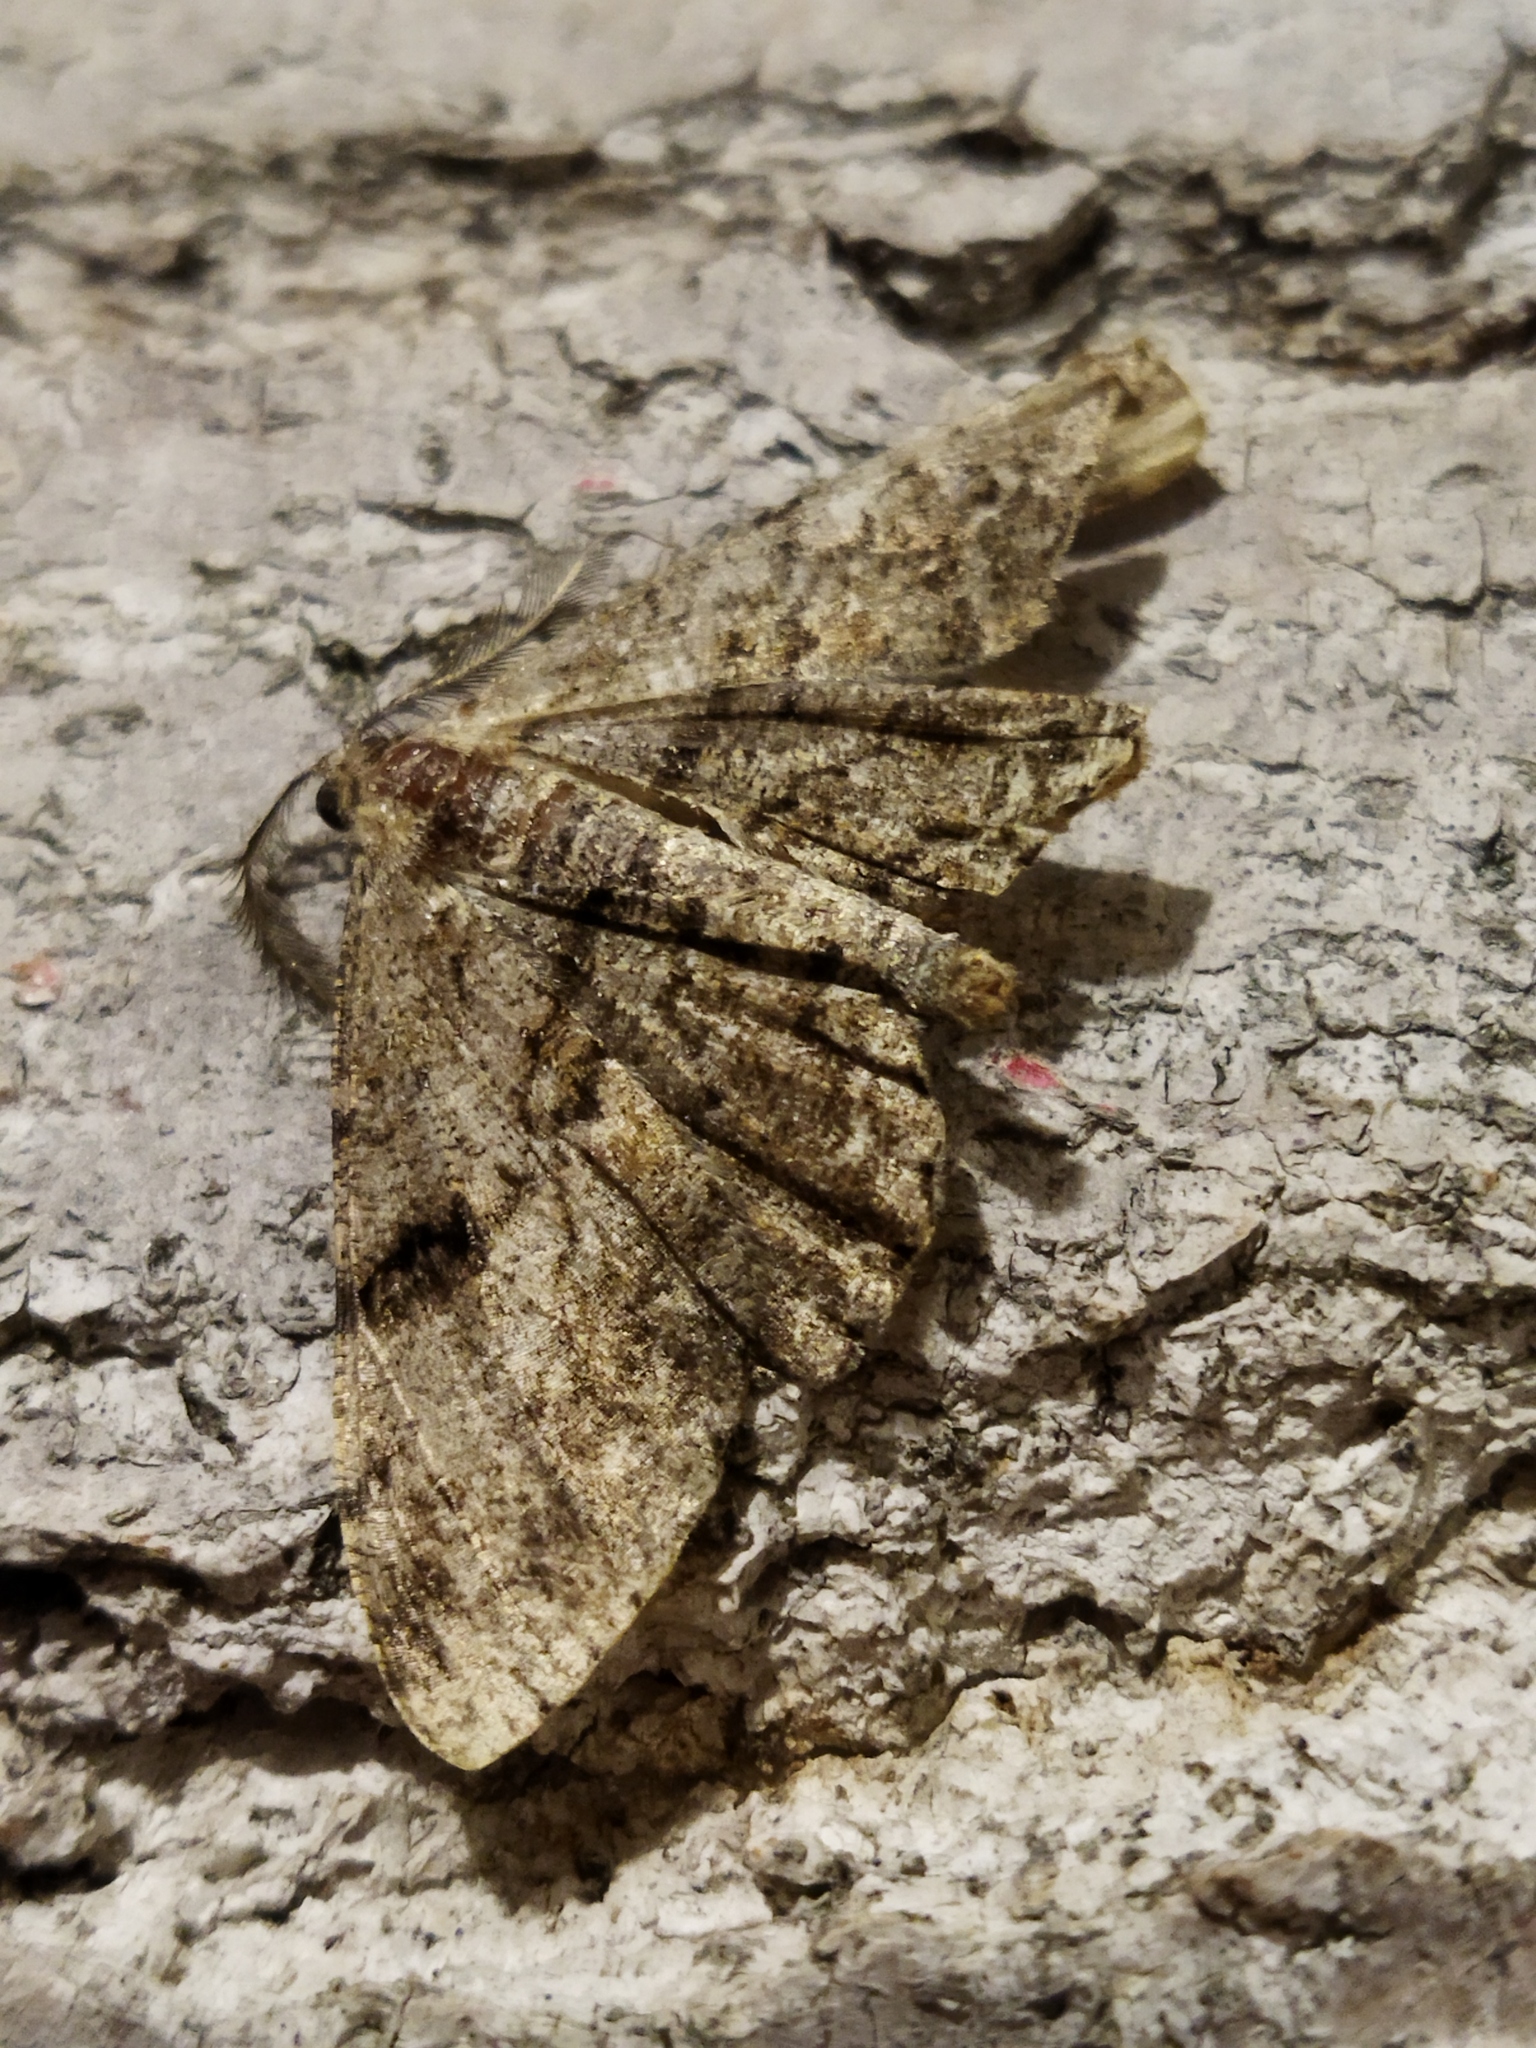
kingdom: Animalia
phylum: Arthropoda
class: Insecta
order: Lepidoptera
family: Geometridae
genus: Peribatodes
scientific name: Peribatodes rhomboidaria
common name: Willow beauty
